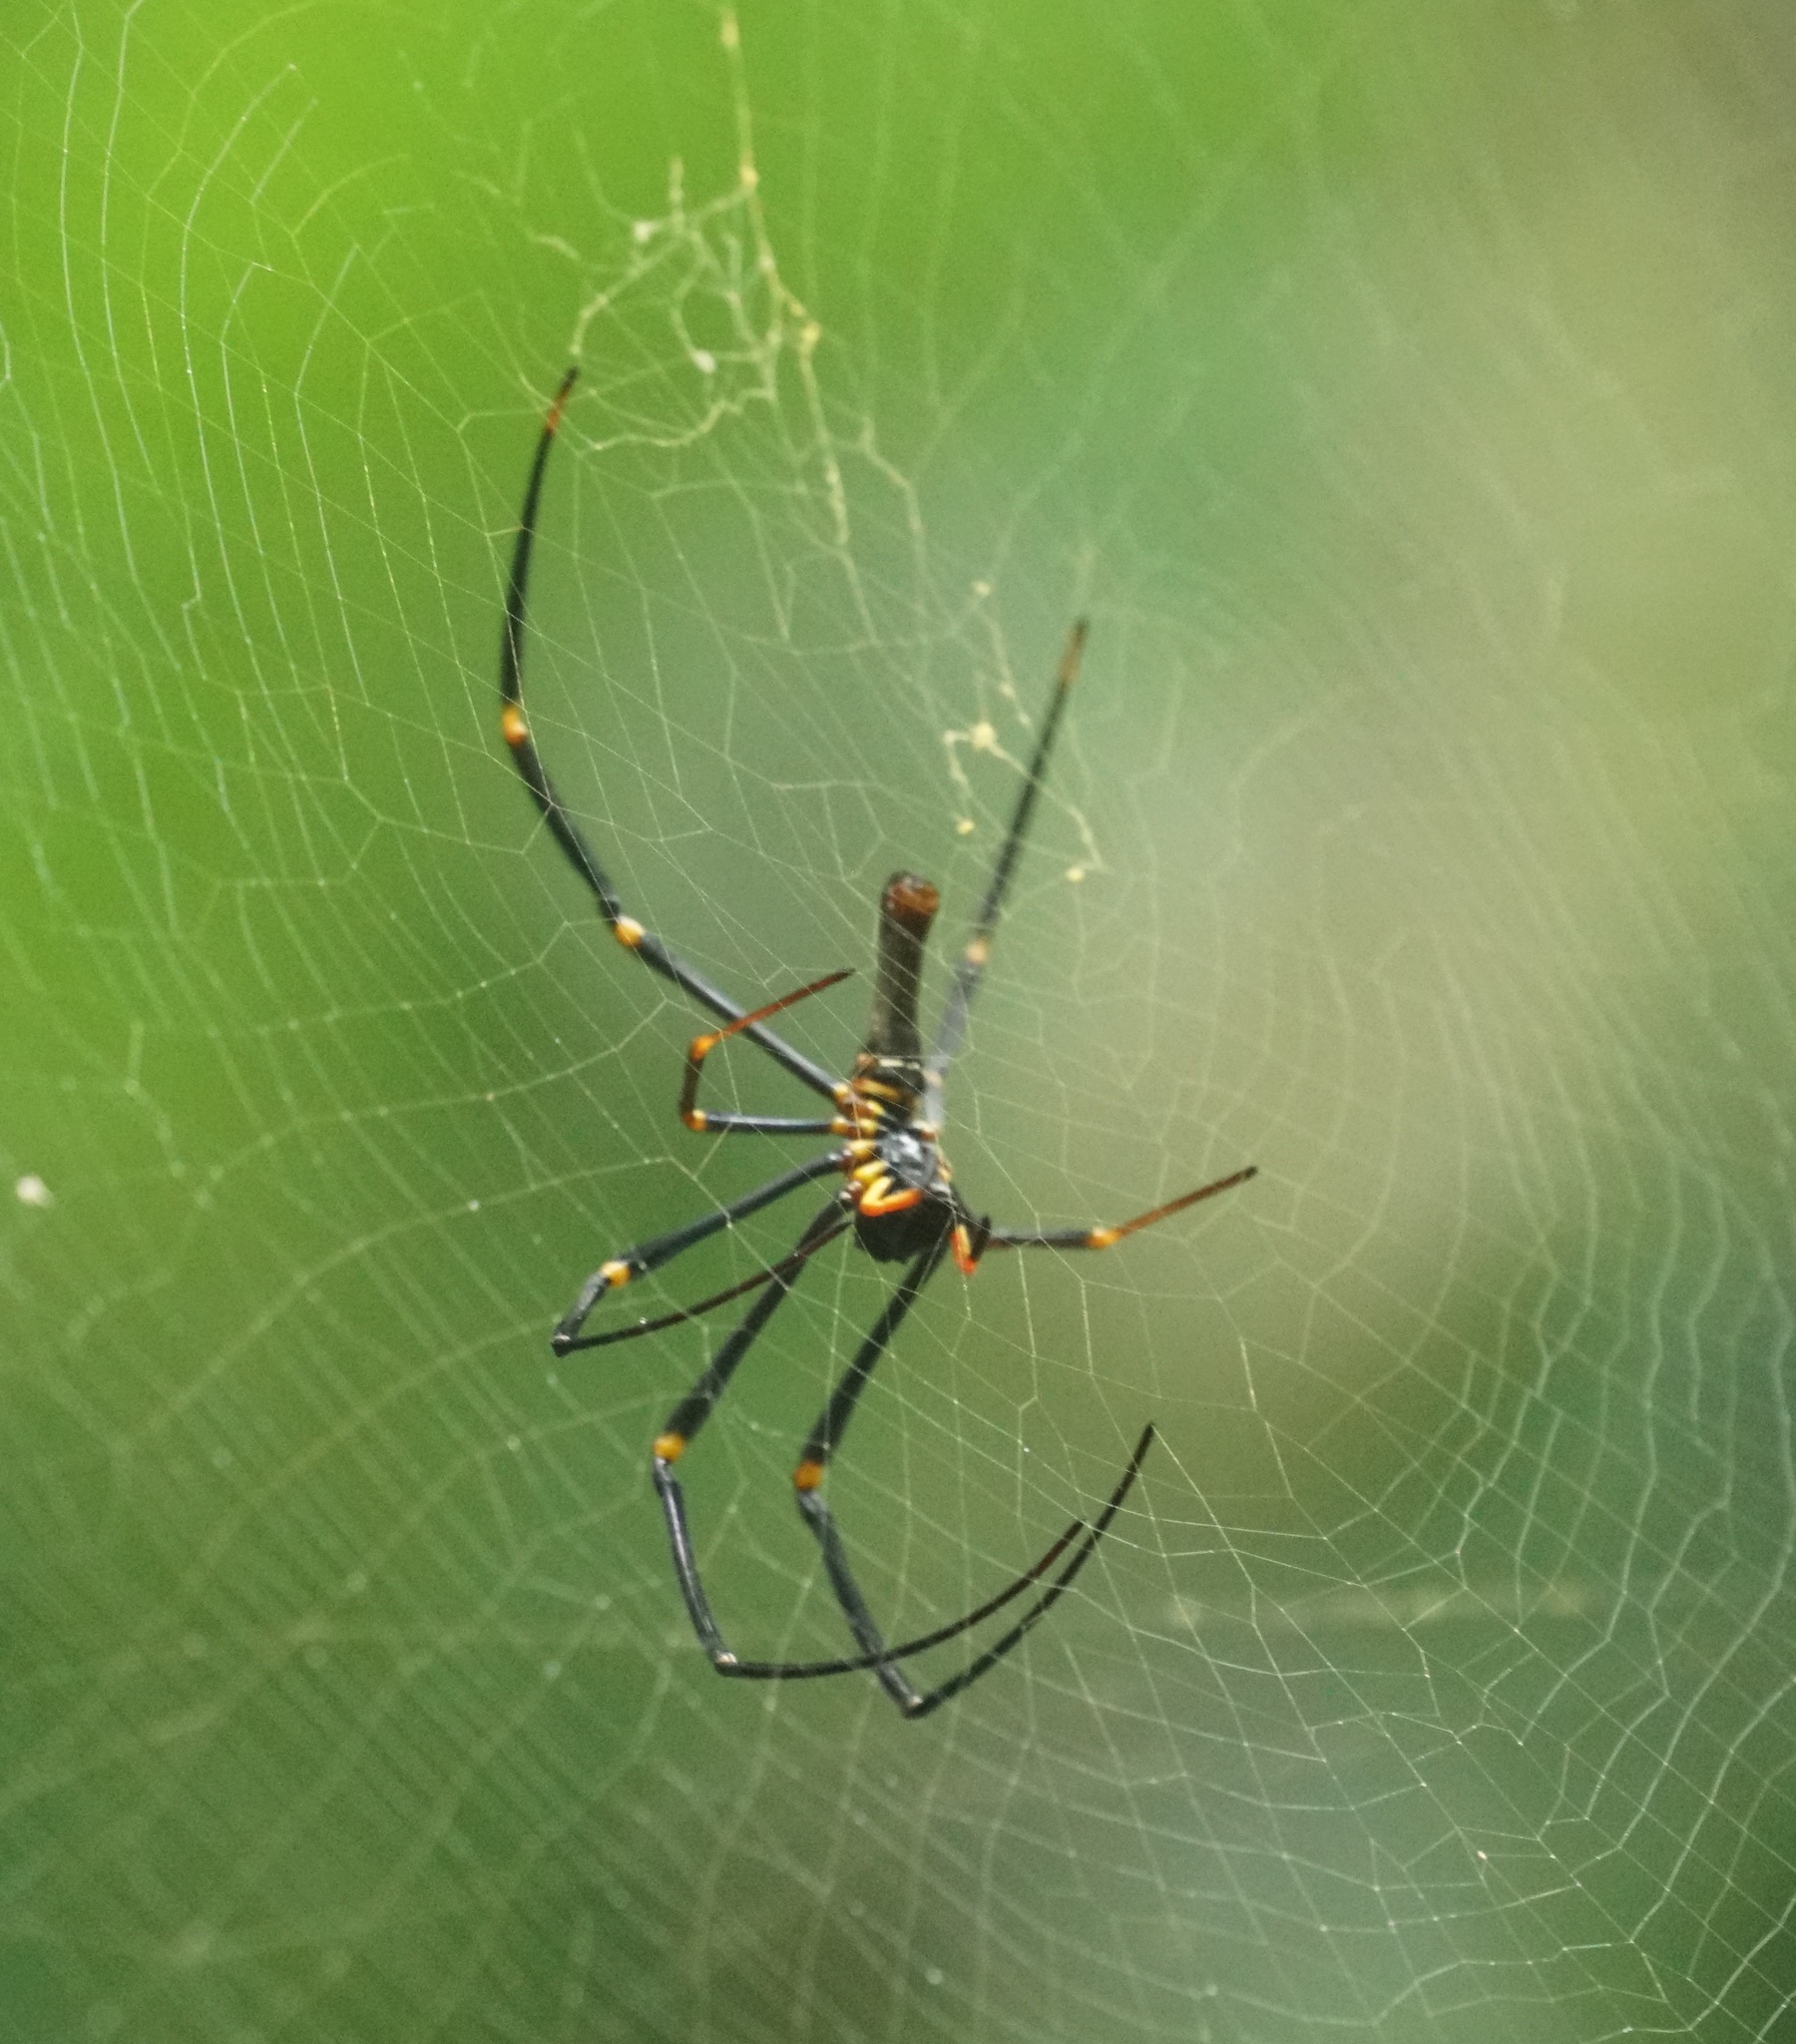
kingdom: Animalia
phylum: Arthropoda
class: Arachnida
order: Araneae
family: Araneidae
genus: Nephila
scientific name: Nephila pilipes
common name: Giant golden orb weaver
